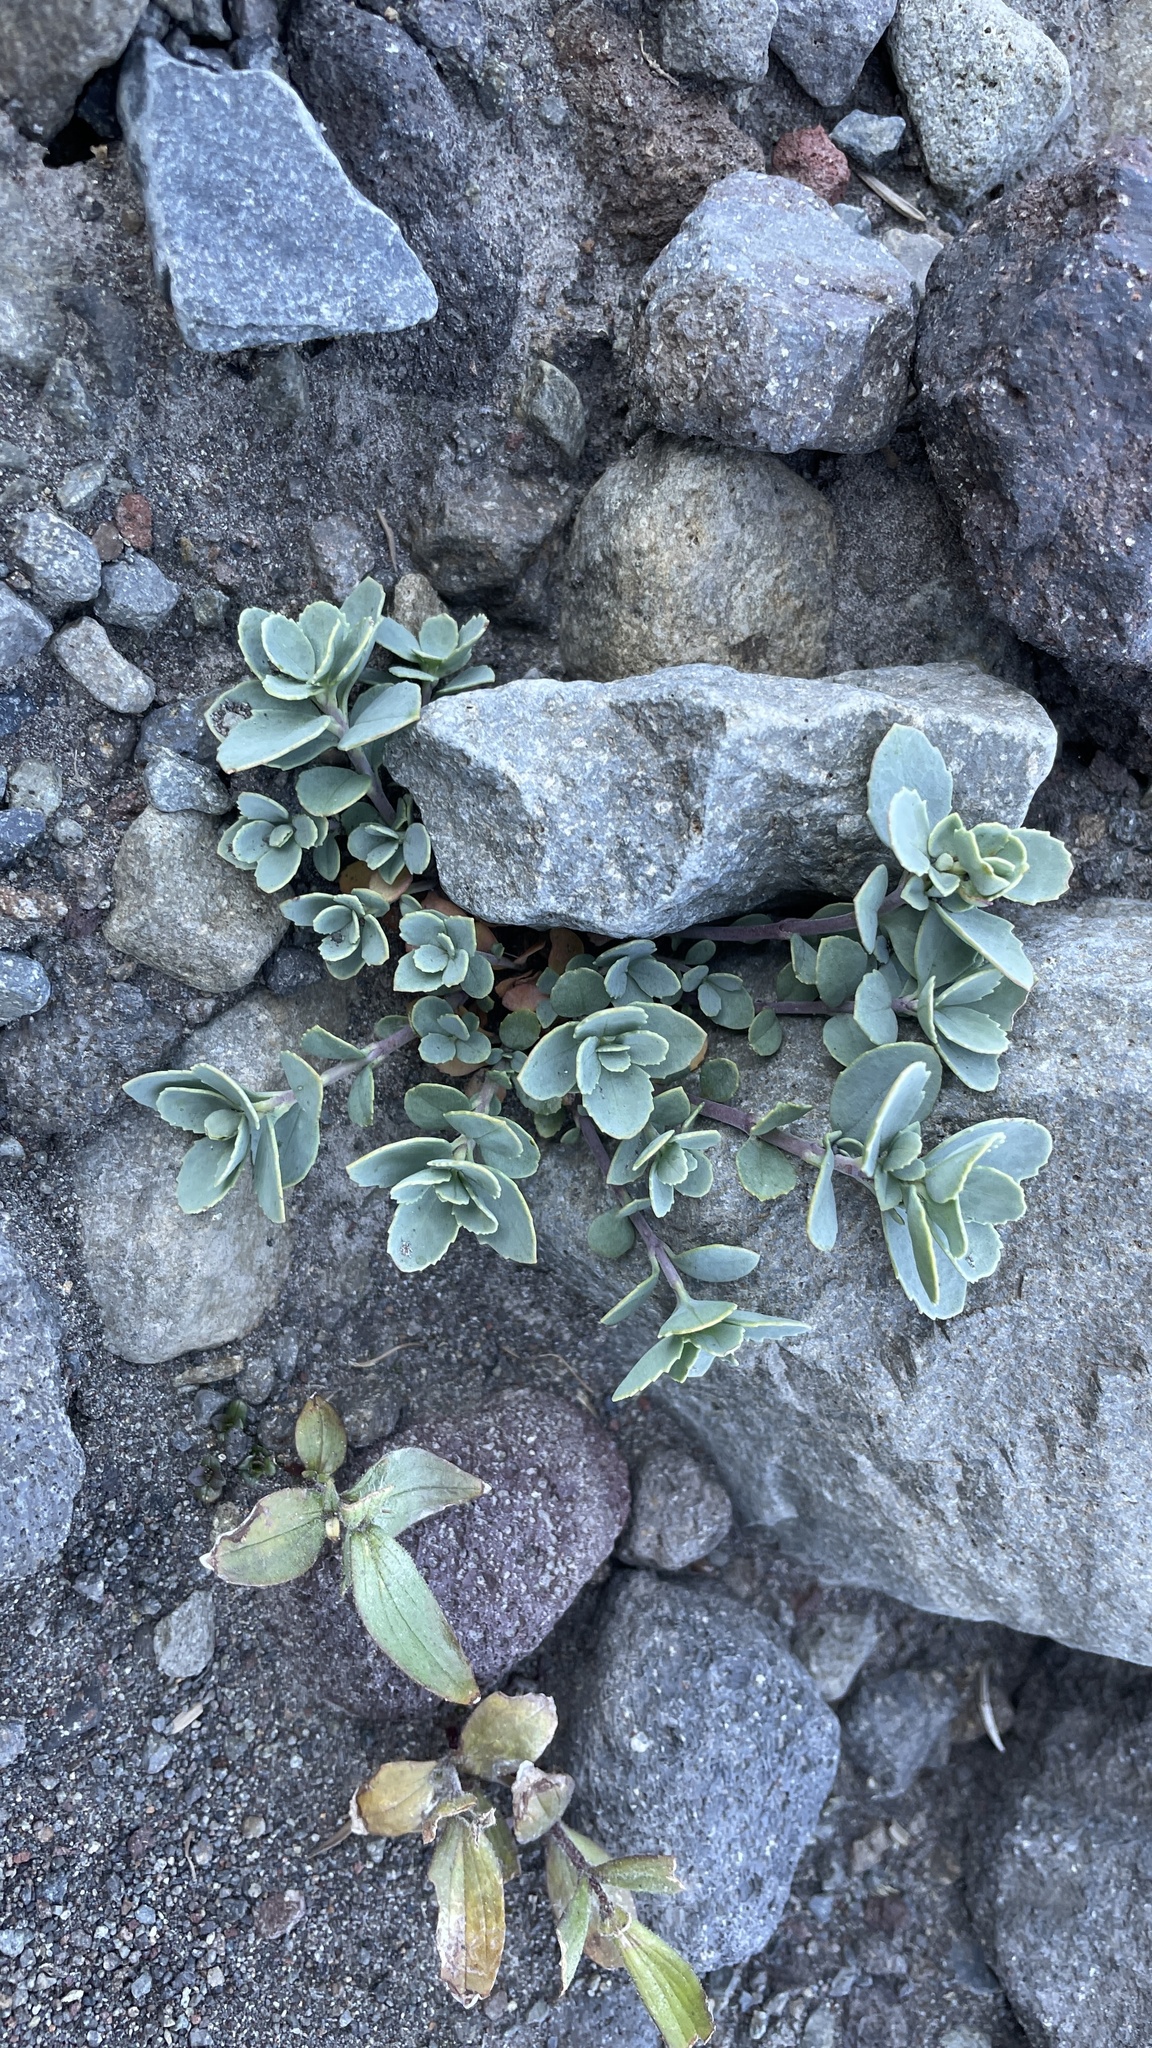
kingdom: Plantae
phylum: Tracheophyta
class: Magnoliopsida
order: Lamiales
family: Plantaginaceae
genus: Penstemon
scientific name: Penstemon rupicola
